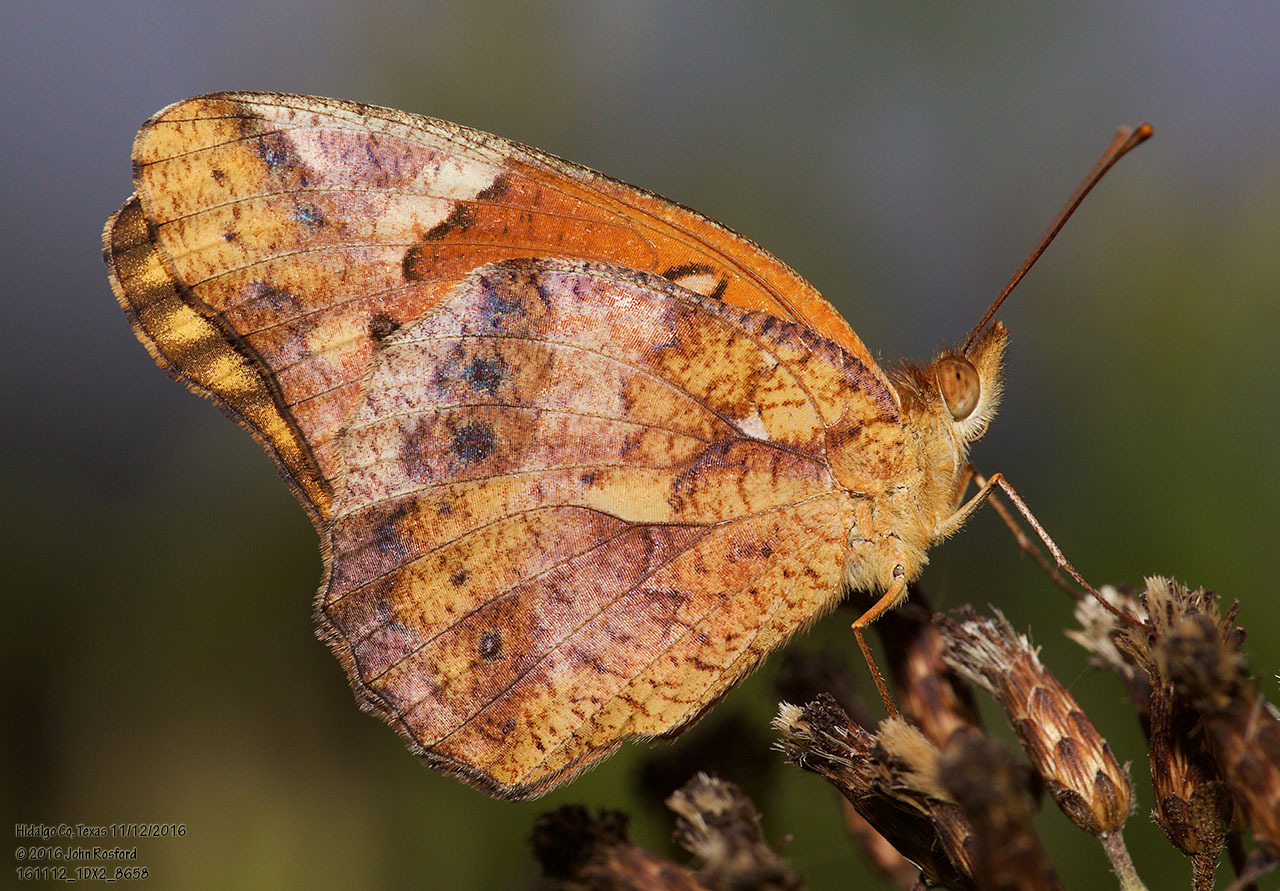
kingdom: Animalia
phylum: Arthropoda
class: Insecta
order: Lepidoptera
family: Nymphalidae
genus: Euptoieta
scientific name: Euptoieta hegesia
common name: Mexican fritillary
